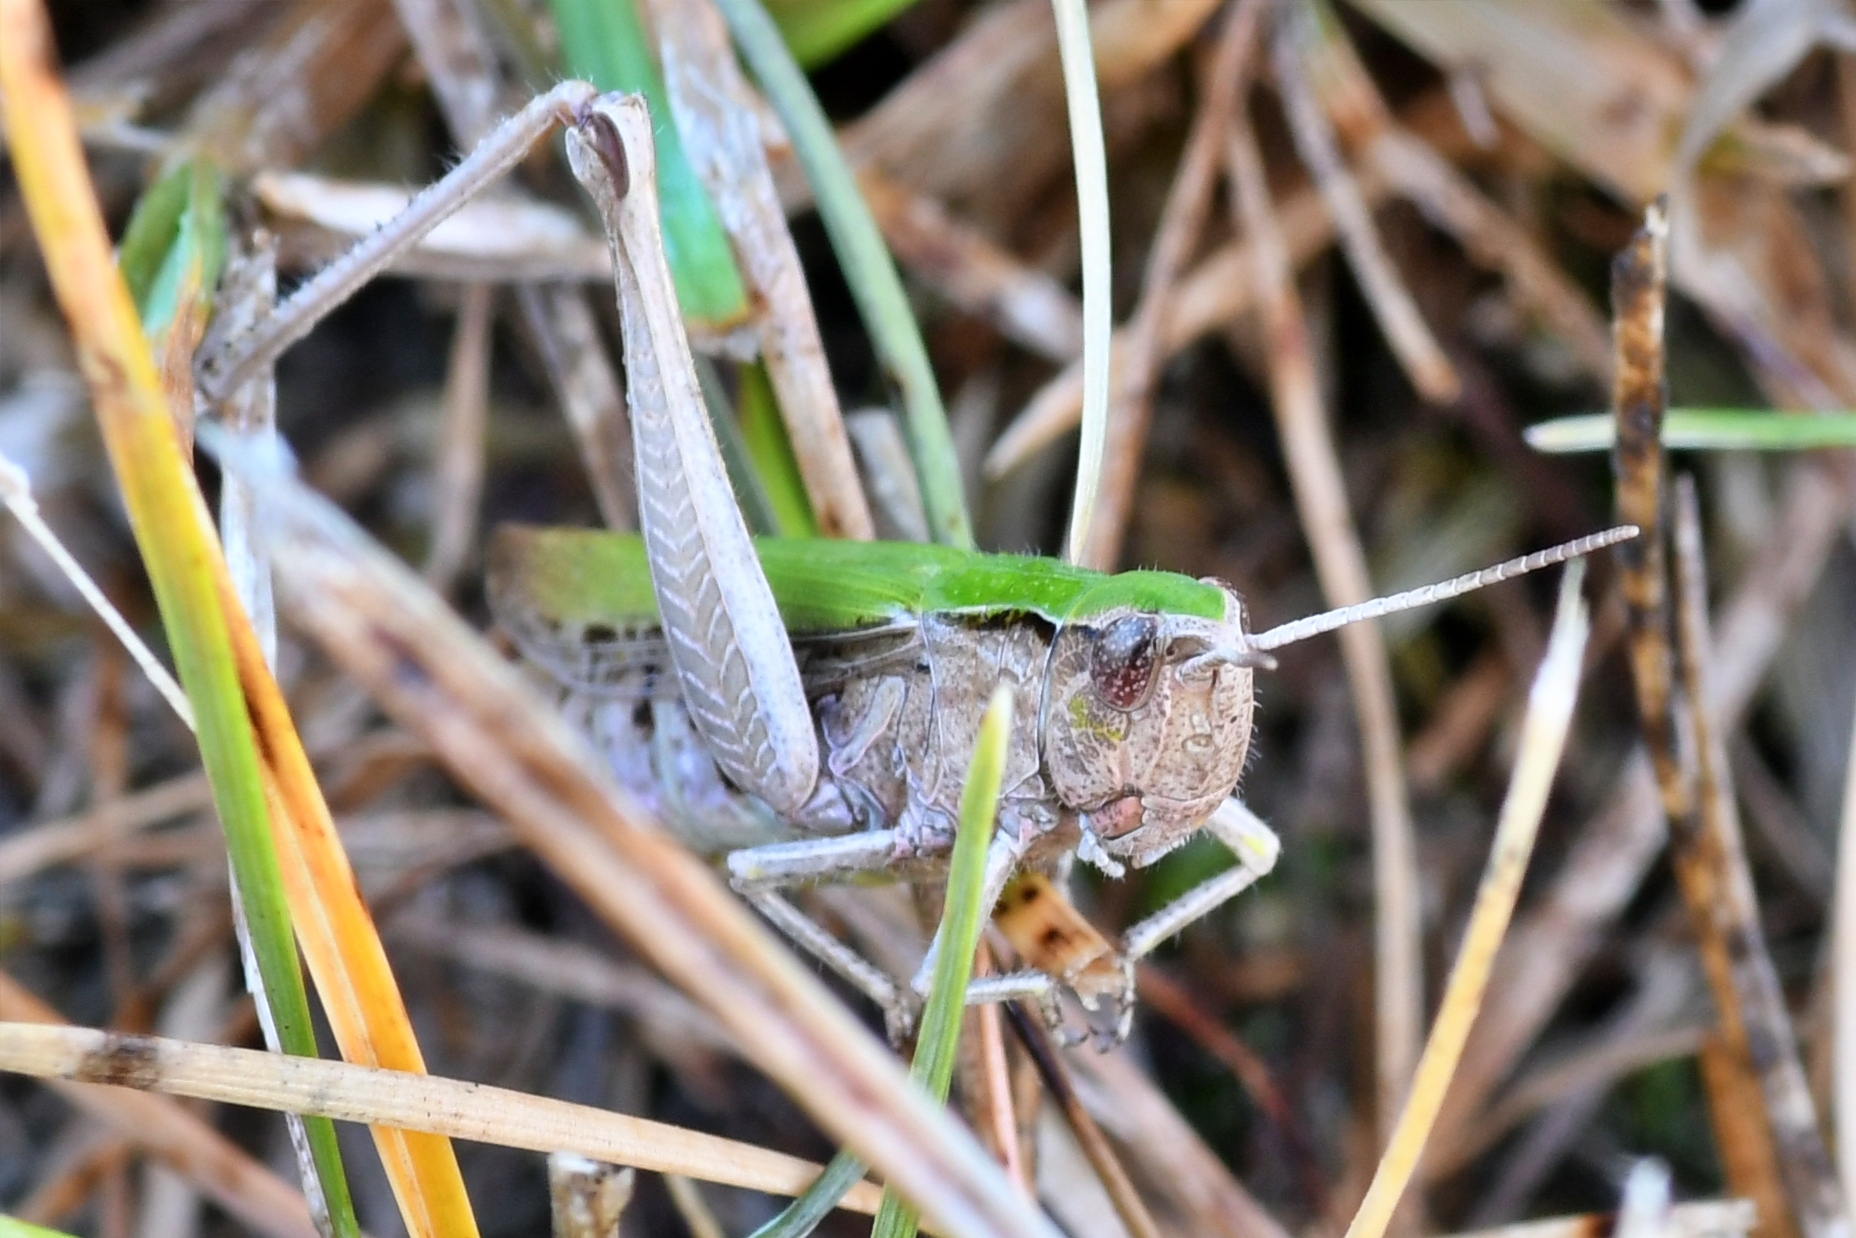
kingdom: Animalia
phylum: Arthropoda
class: Insecta
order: Orthoptera
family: Acrididae
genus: Chorthippus
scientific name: Chorthippus dorsatus
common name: Steppe grasshopper
